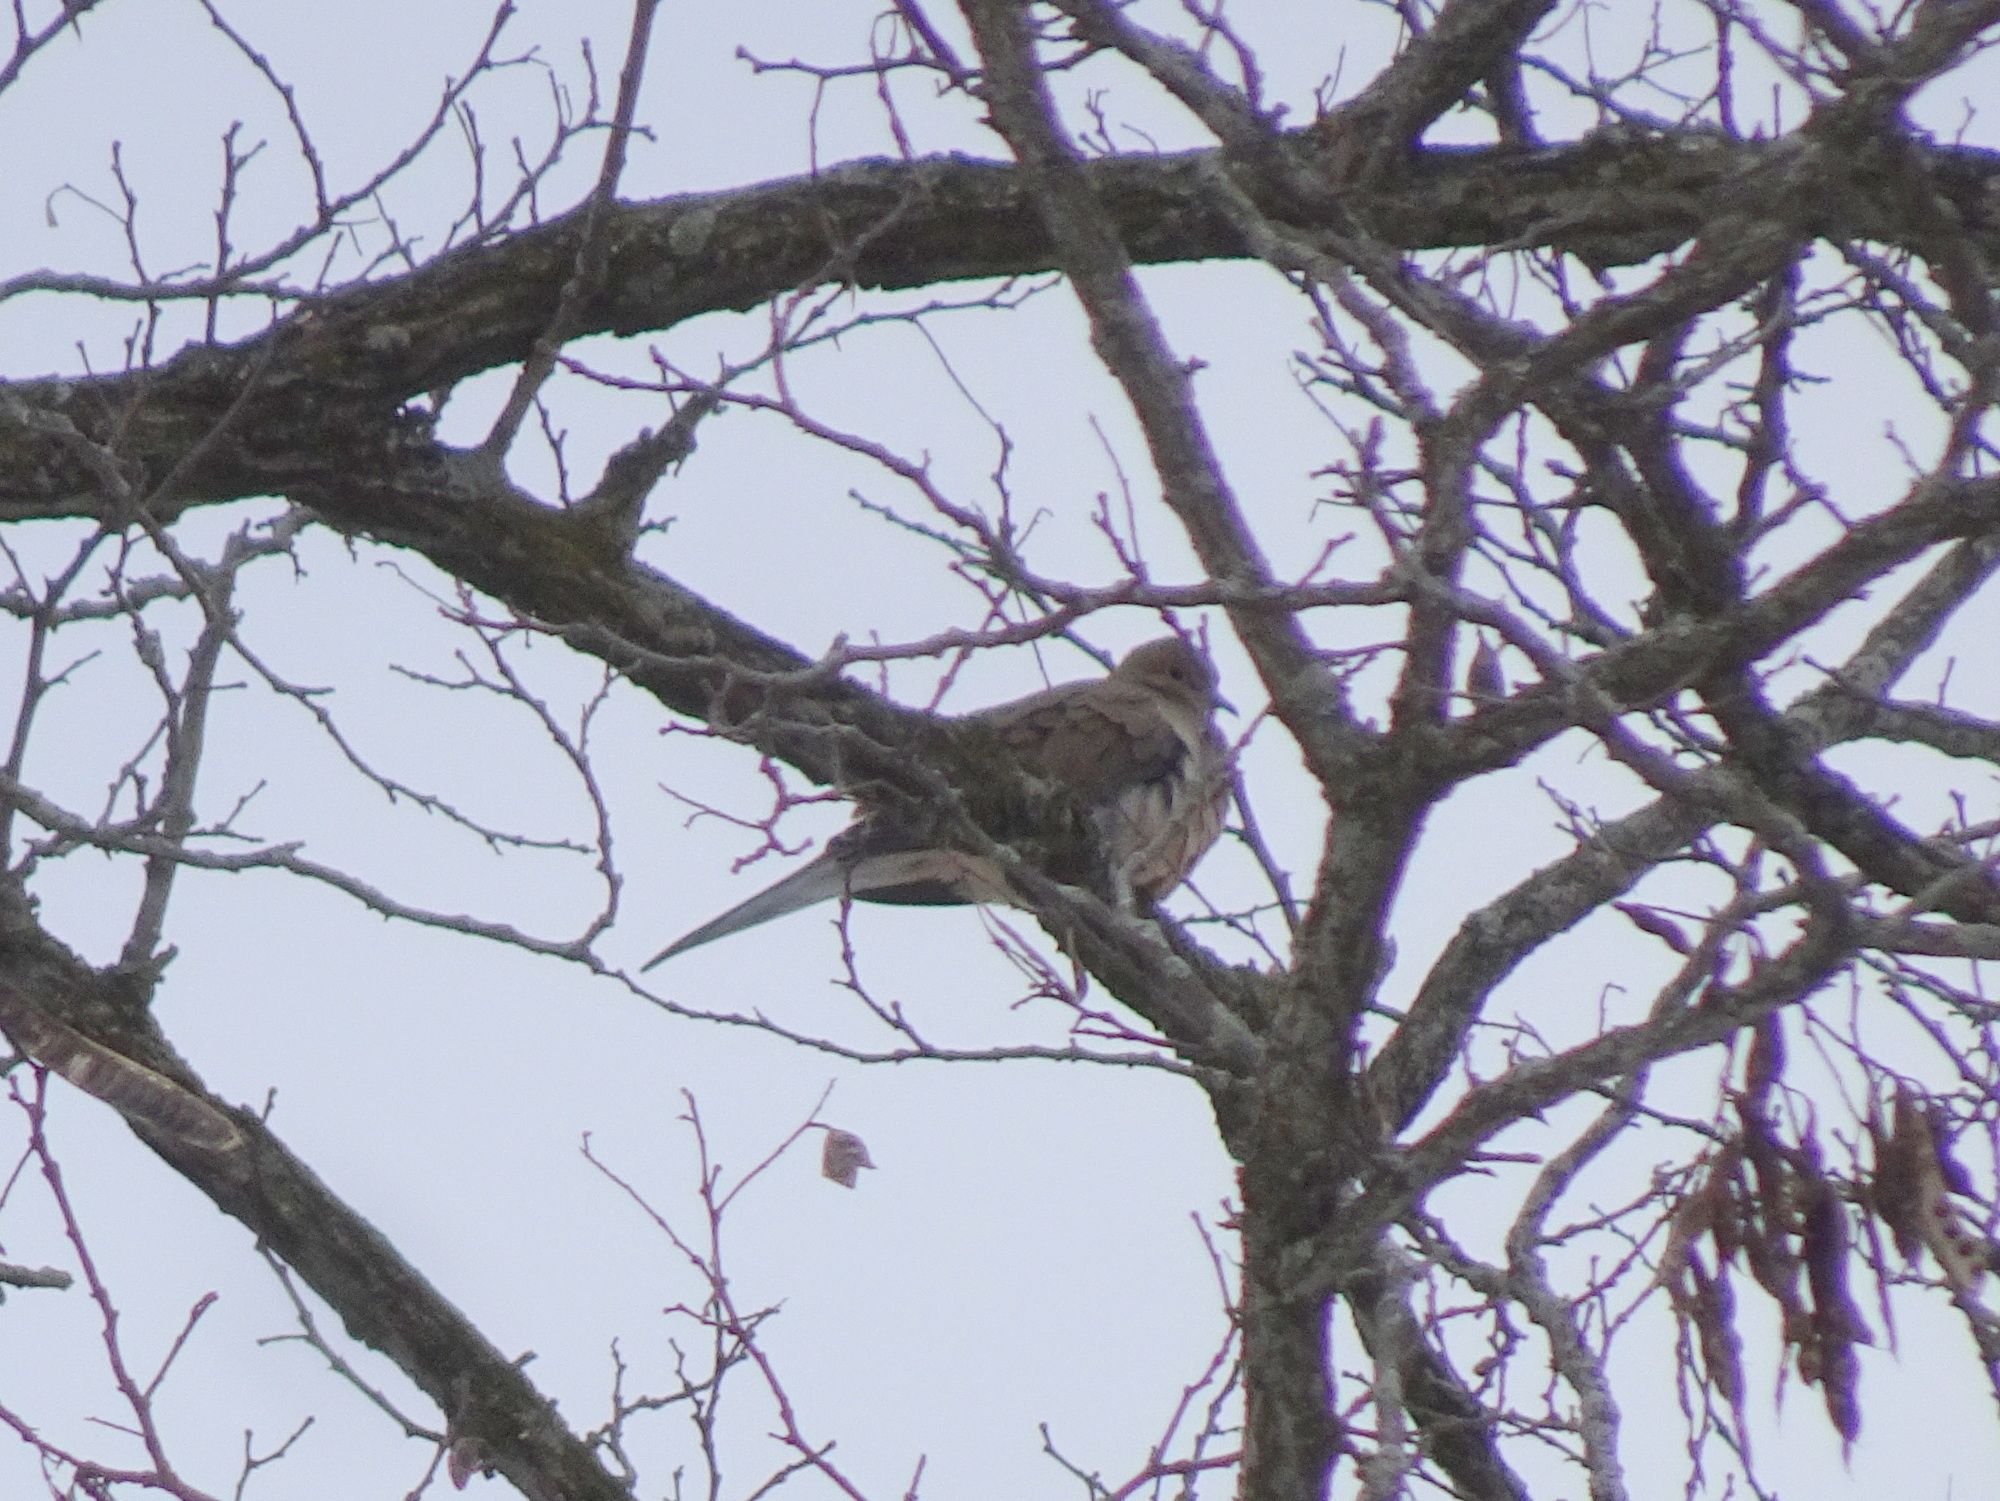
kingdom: Animalia
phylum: Chordata
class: Aves
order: Columbiformes
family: Columbidae
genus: Zenaida
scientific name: Zenaida macroura
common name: Mourning dove
